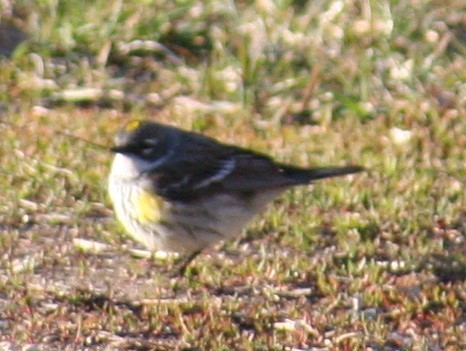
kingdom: Animalia
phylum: Chordata
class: Aves
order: Passeriformes
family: Parulidae
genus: Setophaga
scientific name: Setophaga coronata
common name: Myrtle warbler
